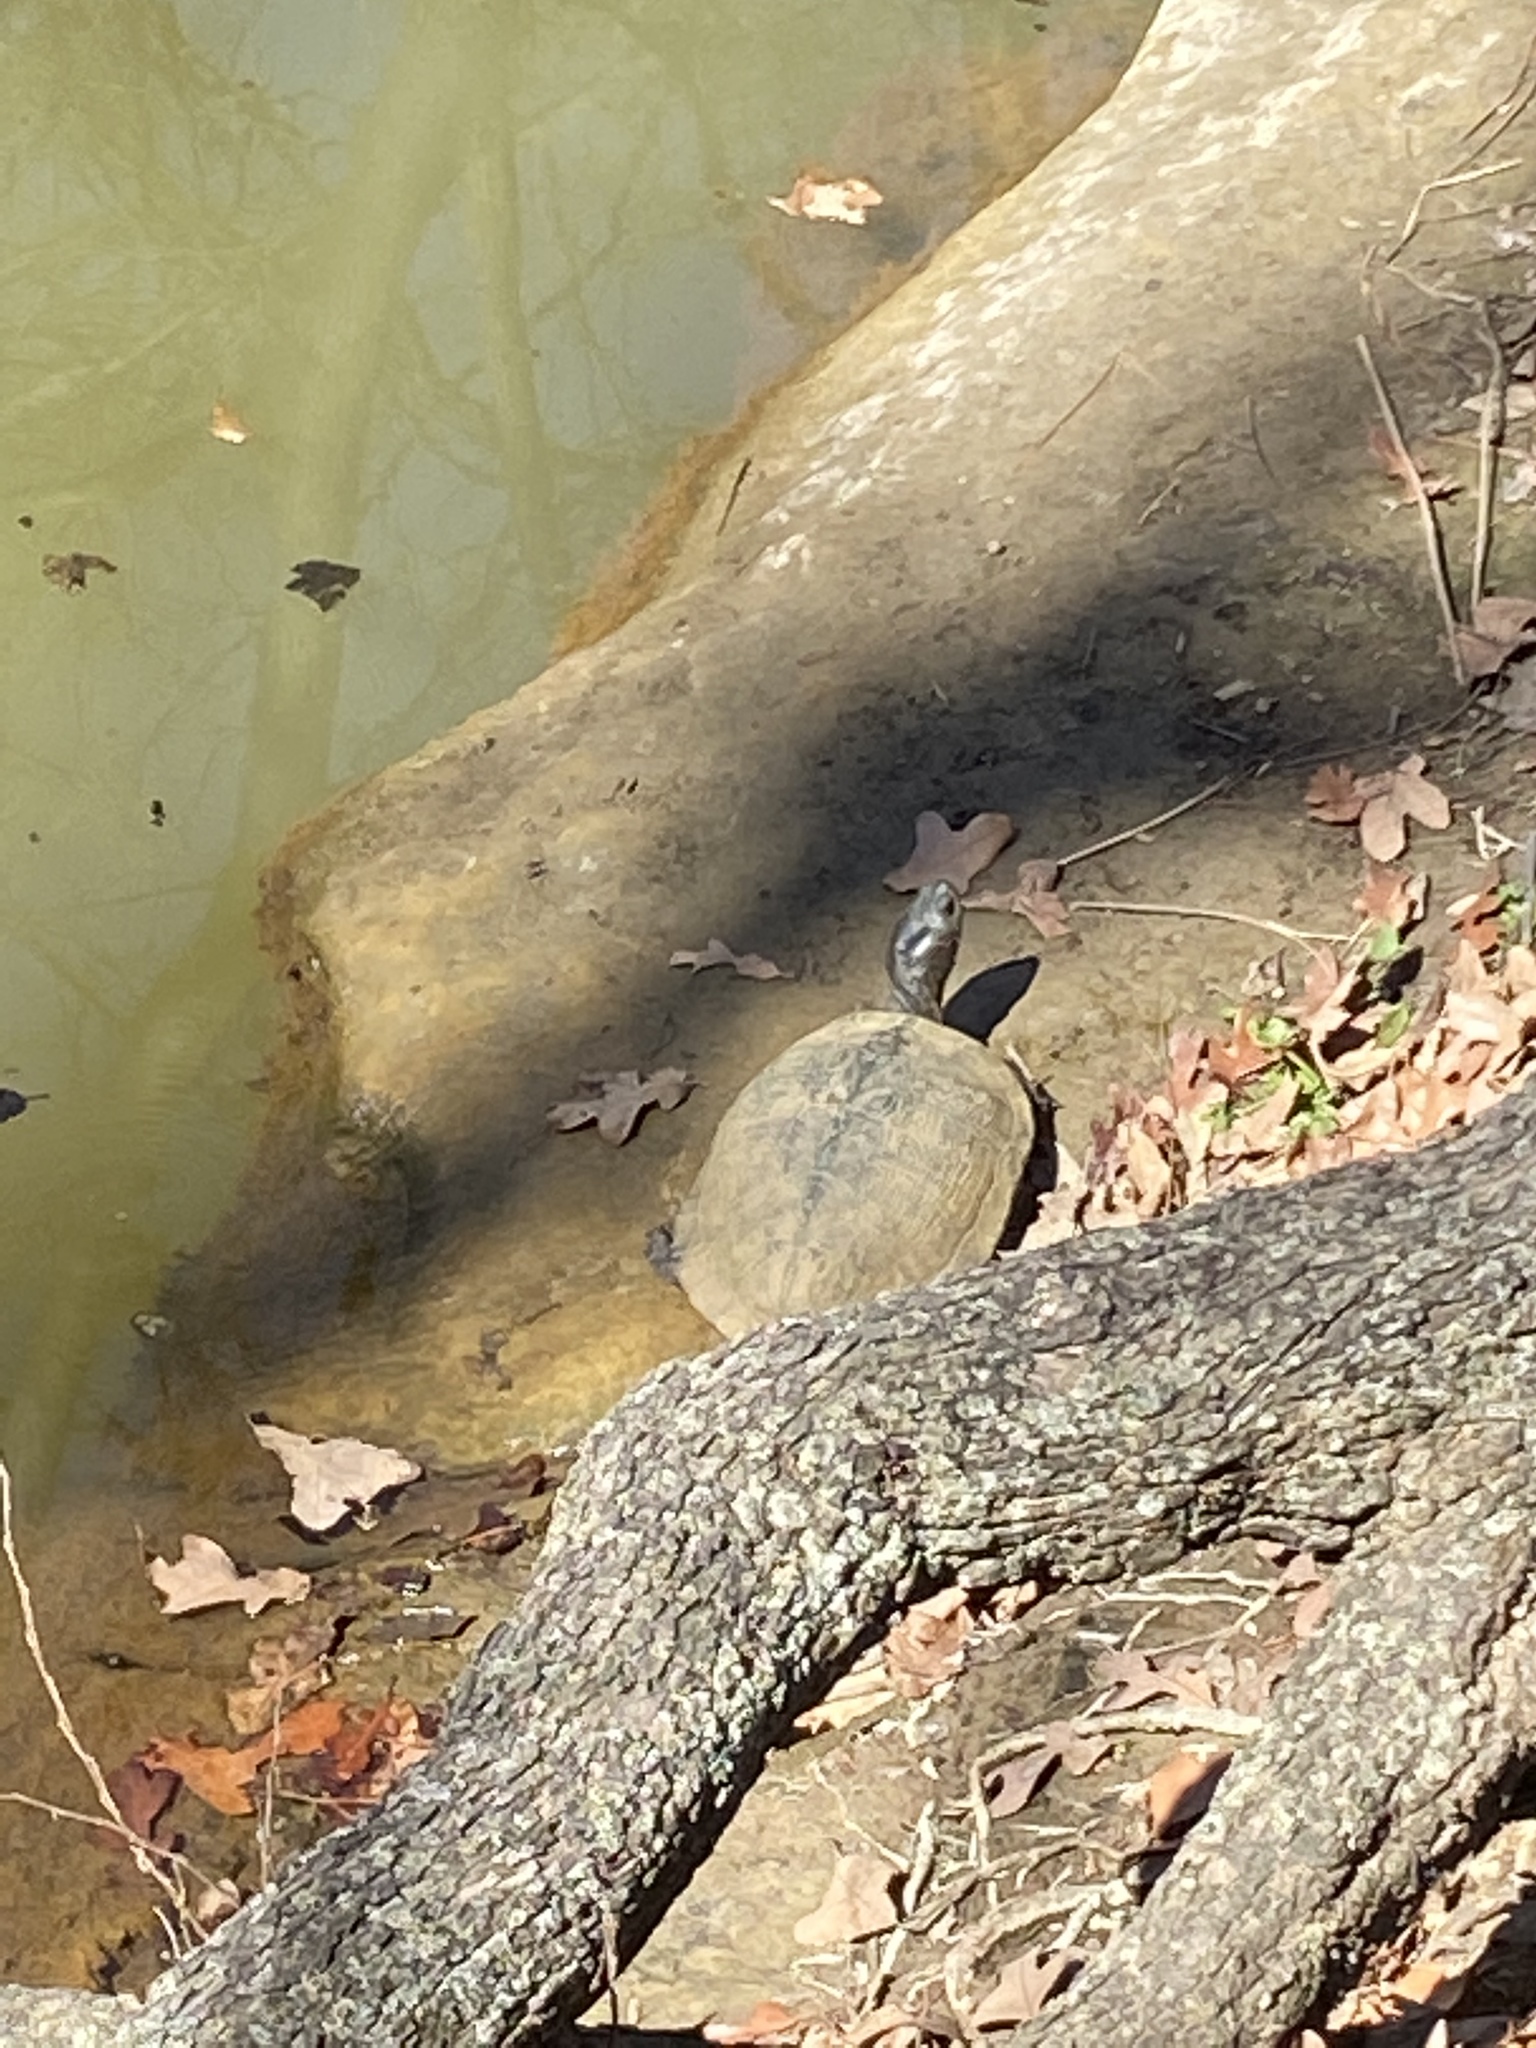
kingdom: Animalia
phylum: Chordata
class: Testudines
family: Emydidae
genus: Trachemys
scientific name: Trachemys scripta
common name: Slider
